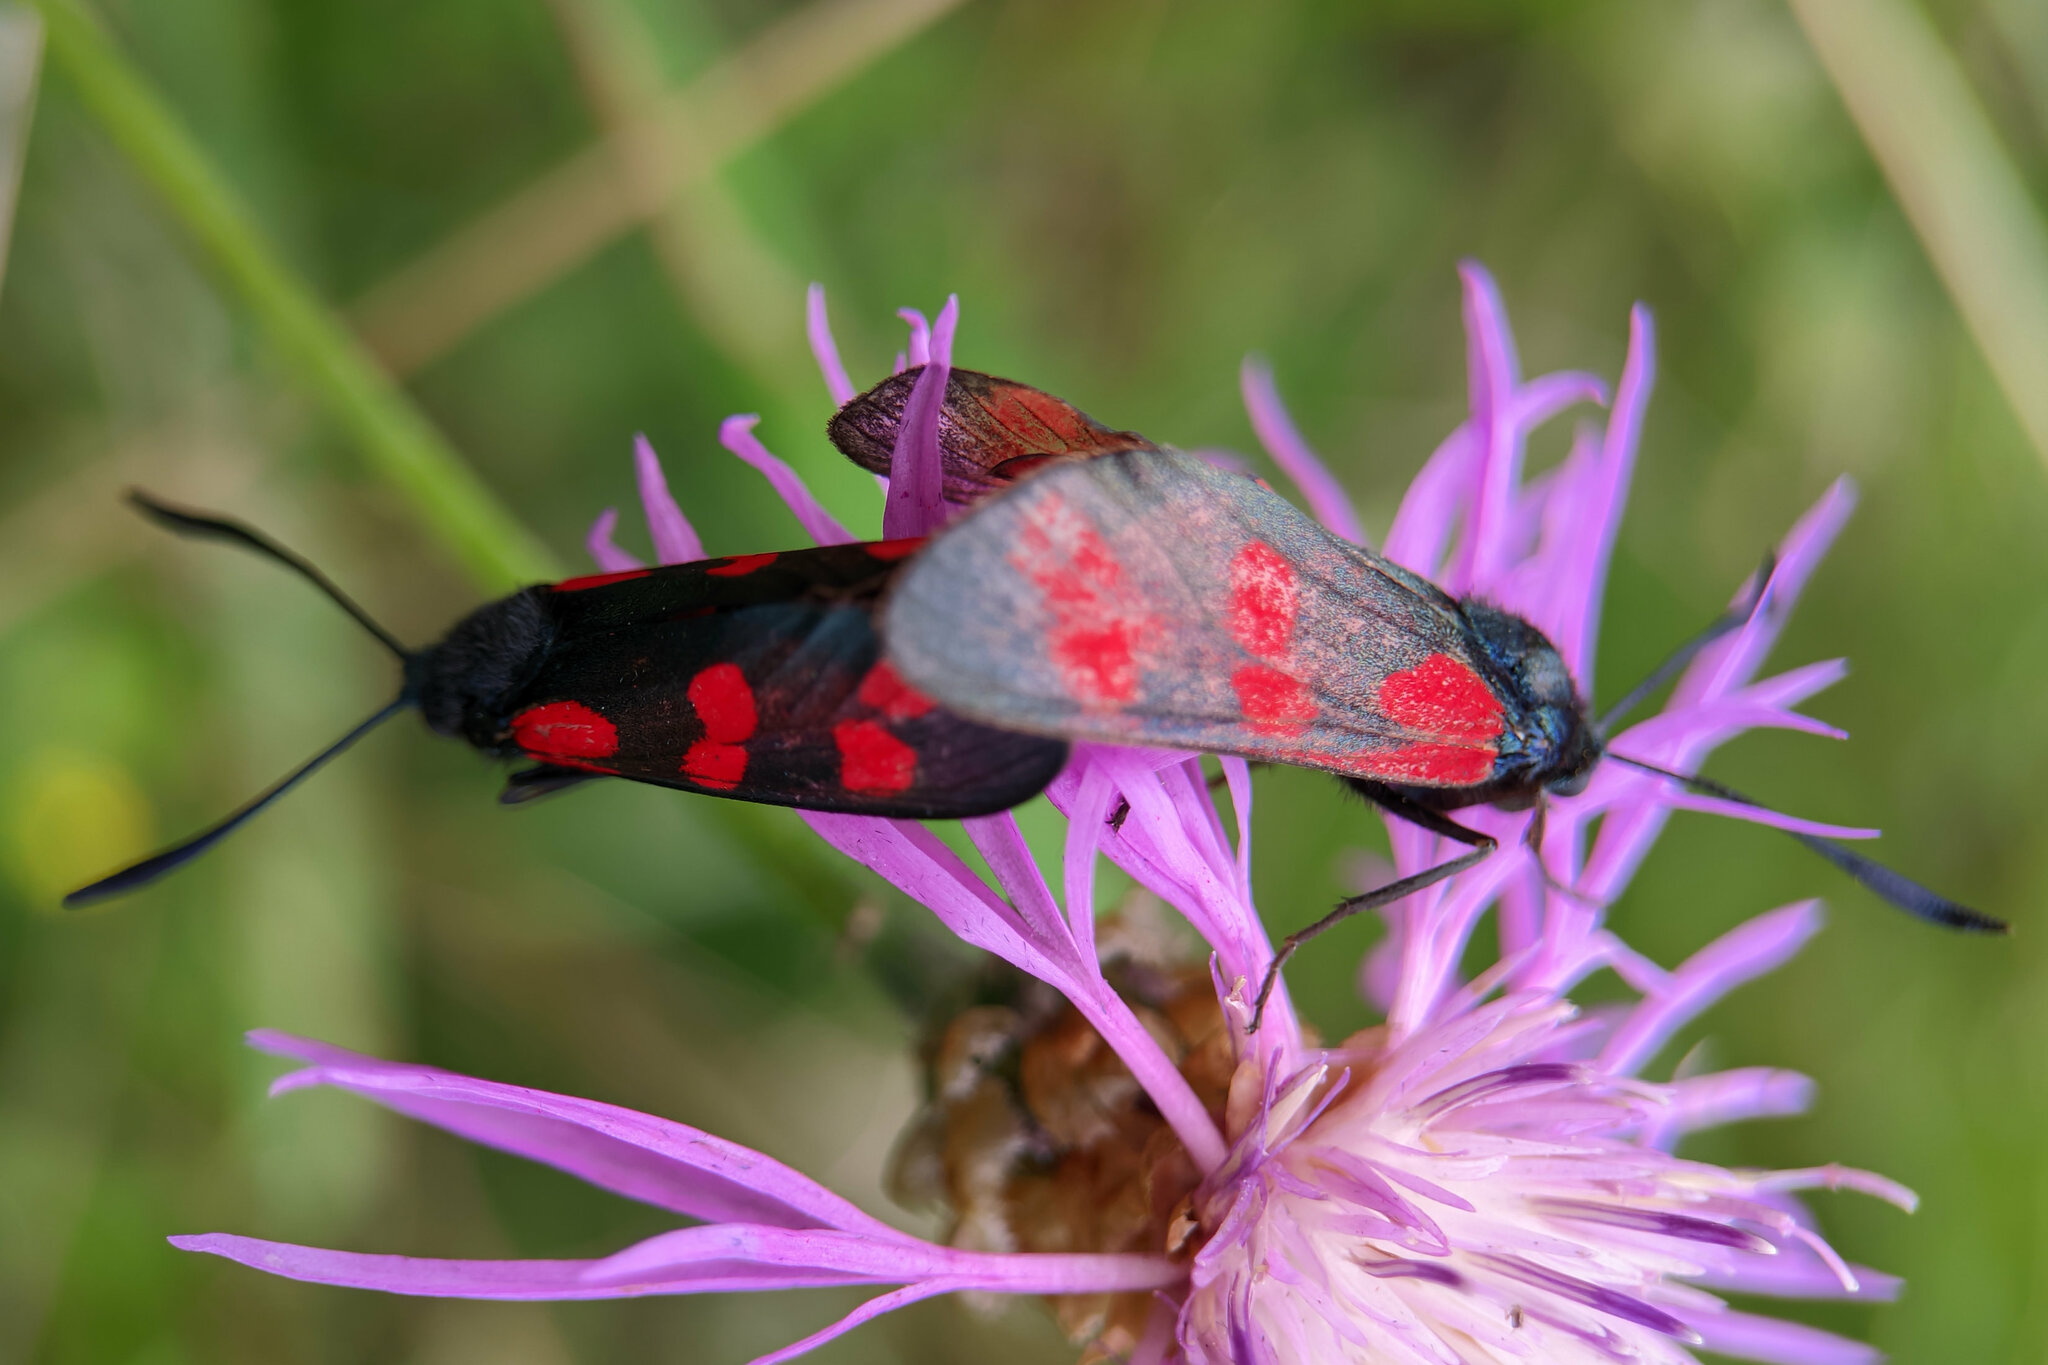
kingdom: Animalia
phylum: Arthropoda
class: Insecta
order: Lepidoptera
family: Zygaenidae
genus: Zygaena
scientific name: Zygaena filipendulae
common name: Six-spot burnet
